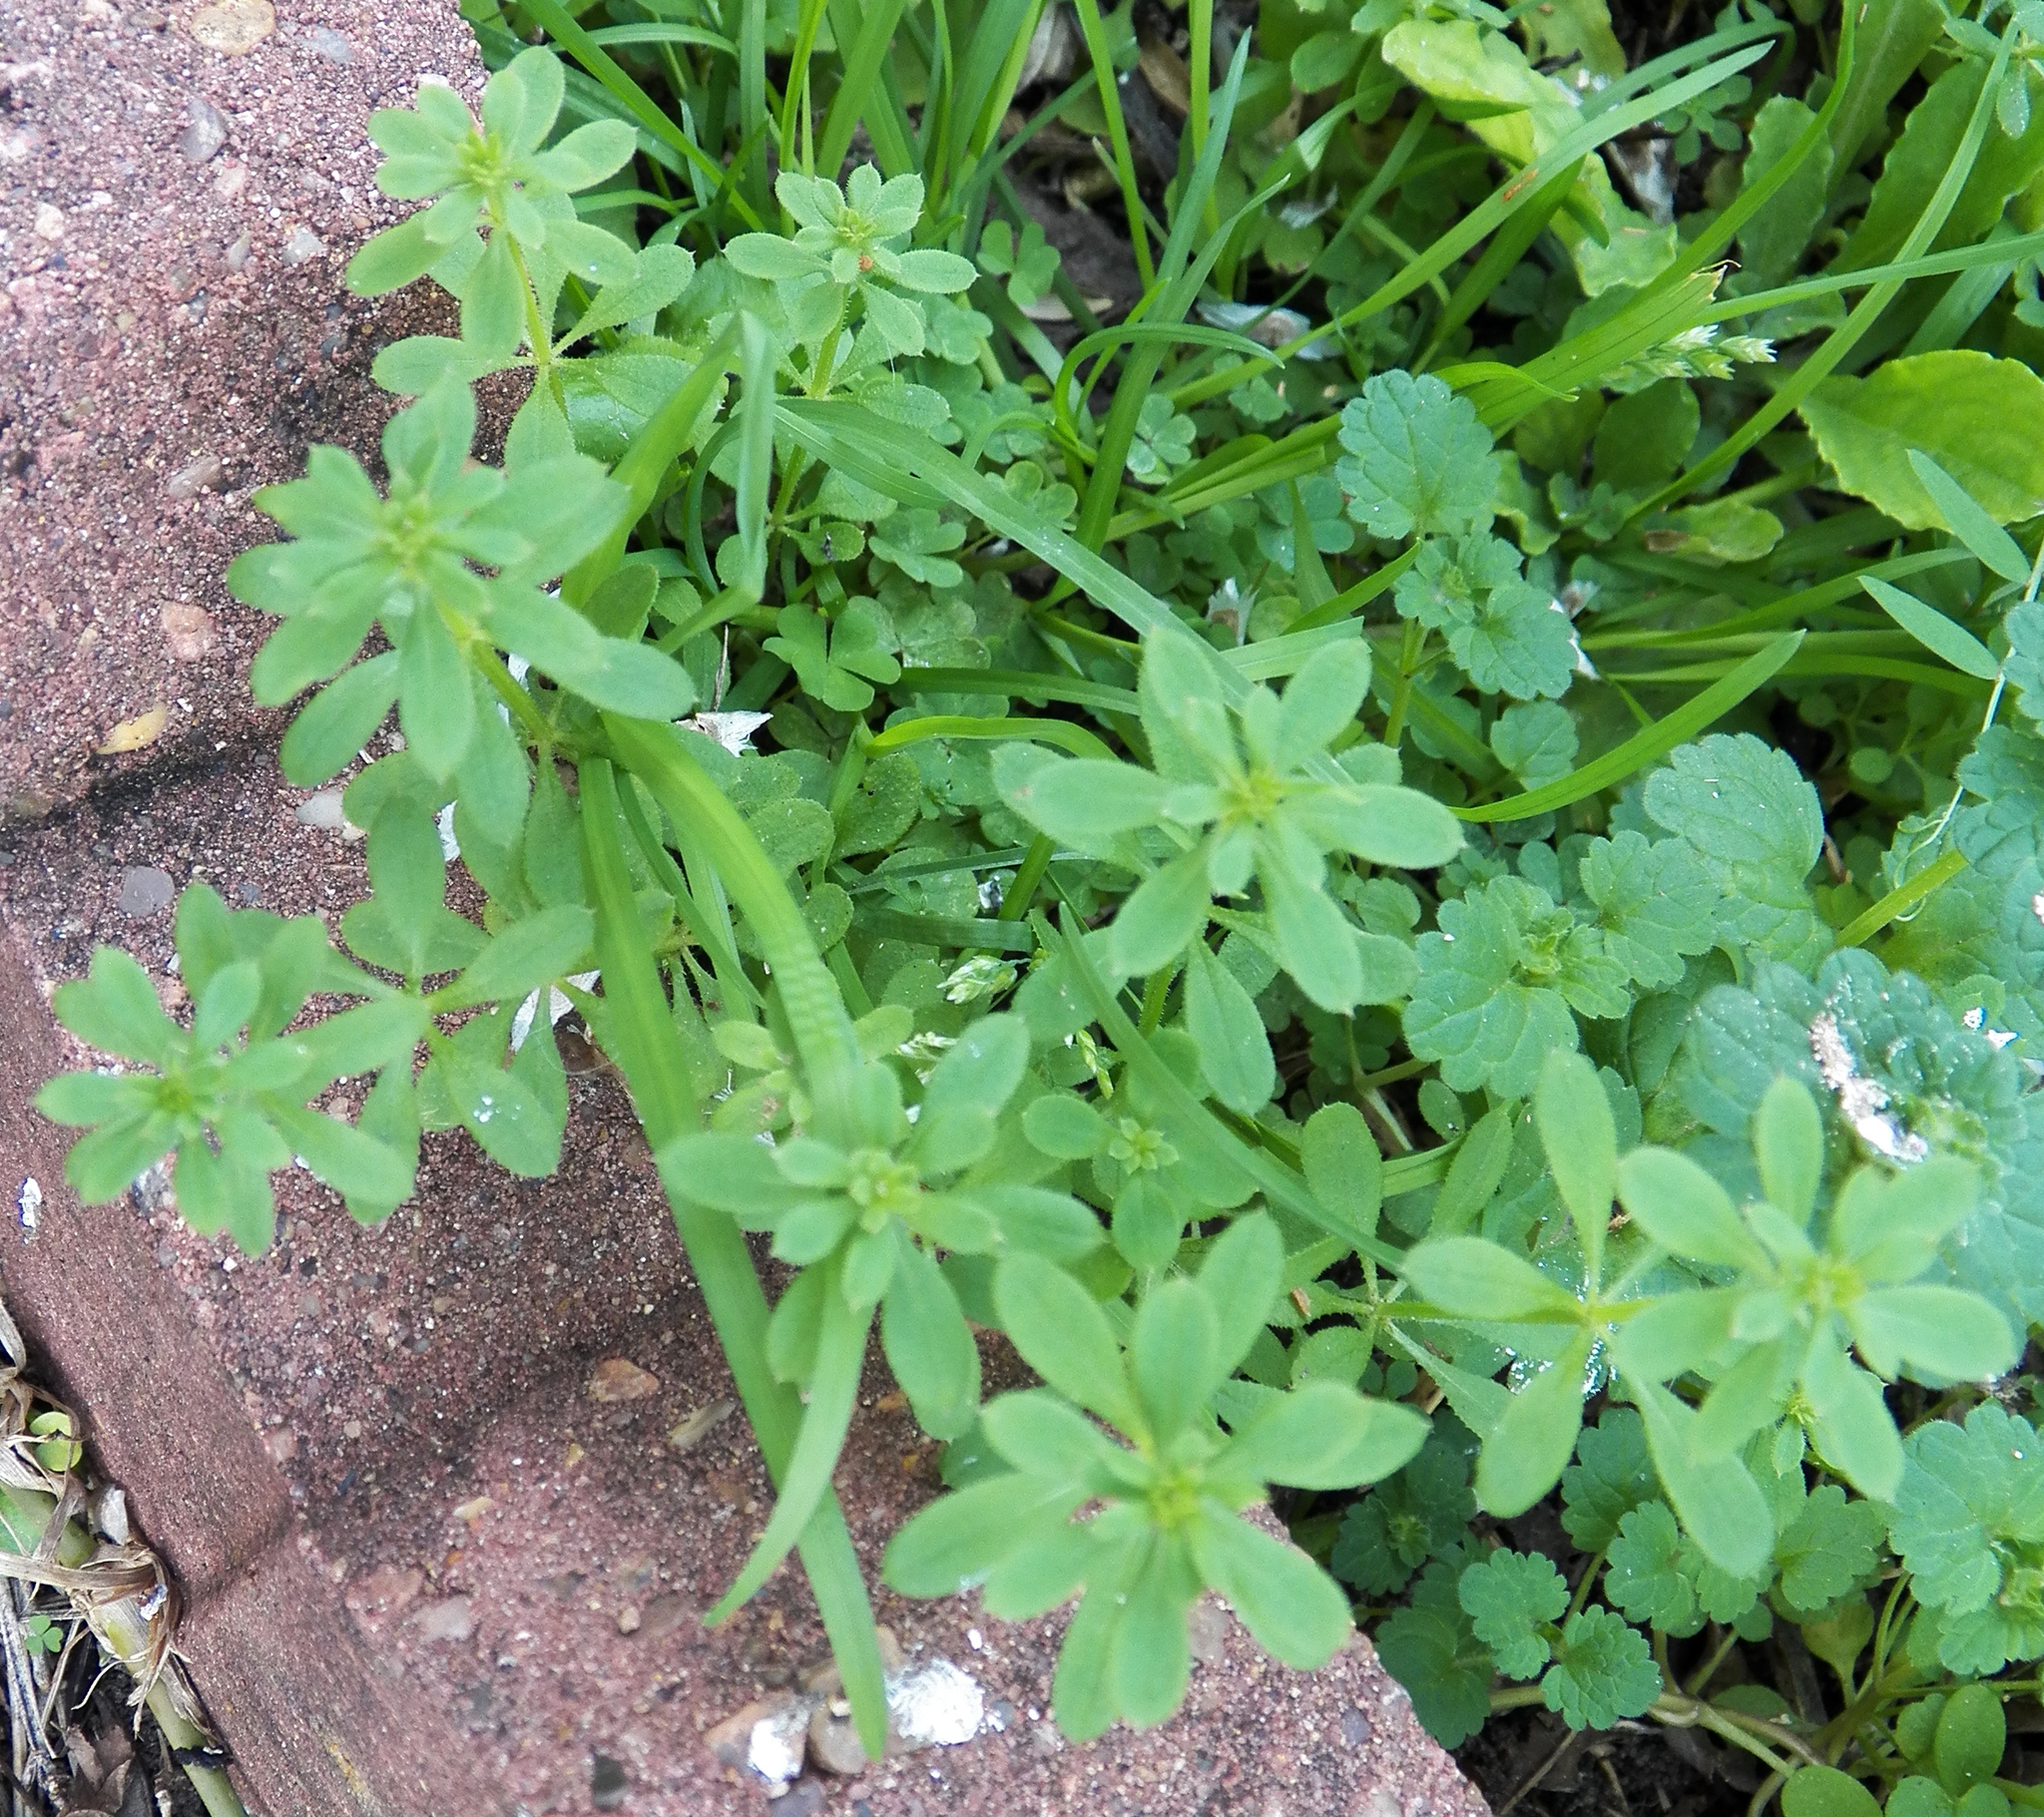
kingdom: Plantae
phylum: Tracheophyta
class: Magnoliopsida
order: Gentianales
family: Rubiaceae
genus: Galium
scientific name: Galium aparine
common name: Cleavers
